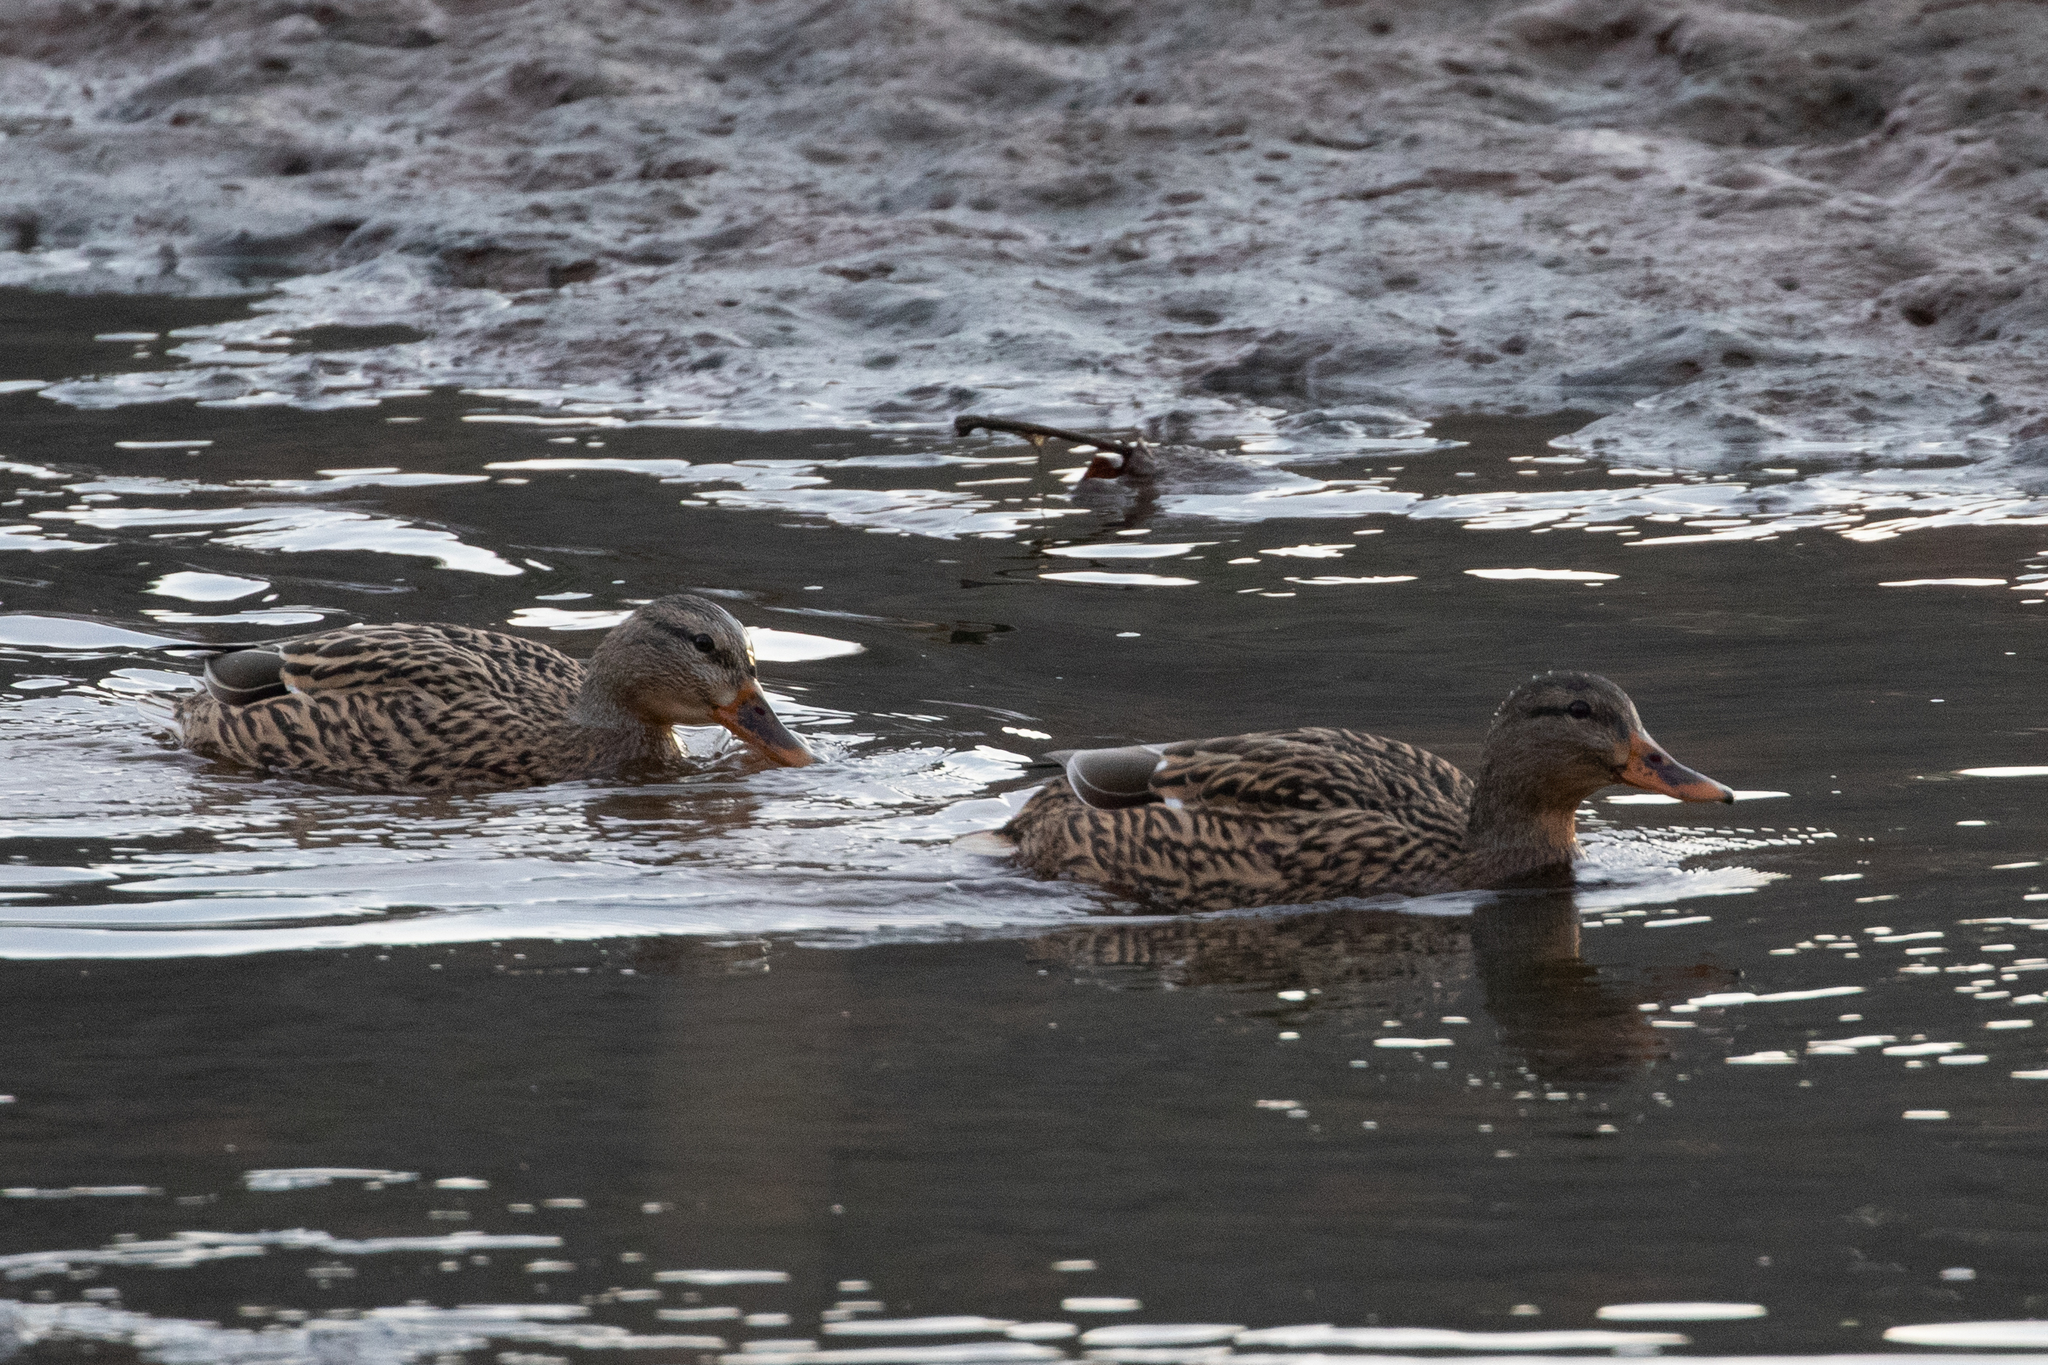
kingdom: Animalia
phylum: Chordata
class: Aves
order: Anseriformes
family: Anatidae
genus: Anas
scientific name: Anas platyrhynchos
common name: Mallard
